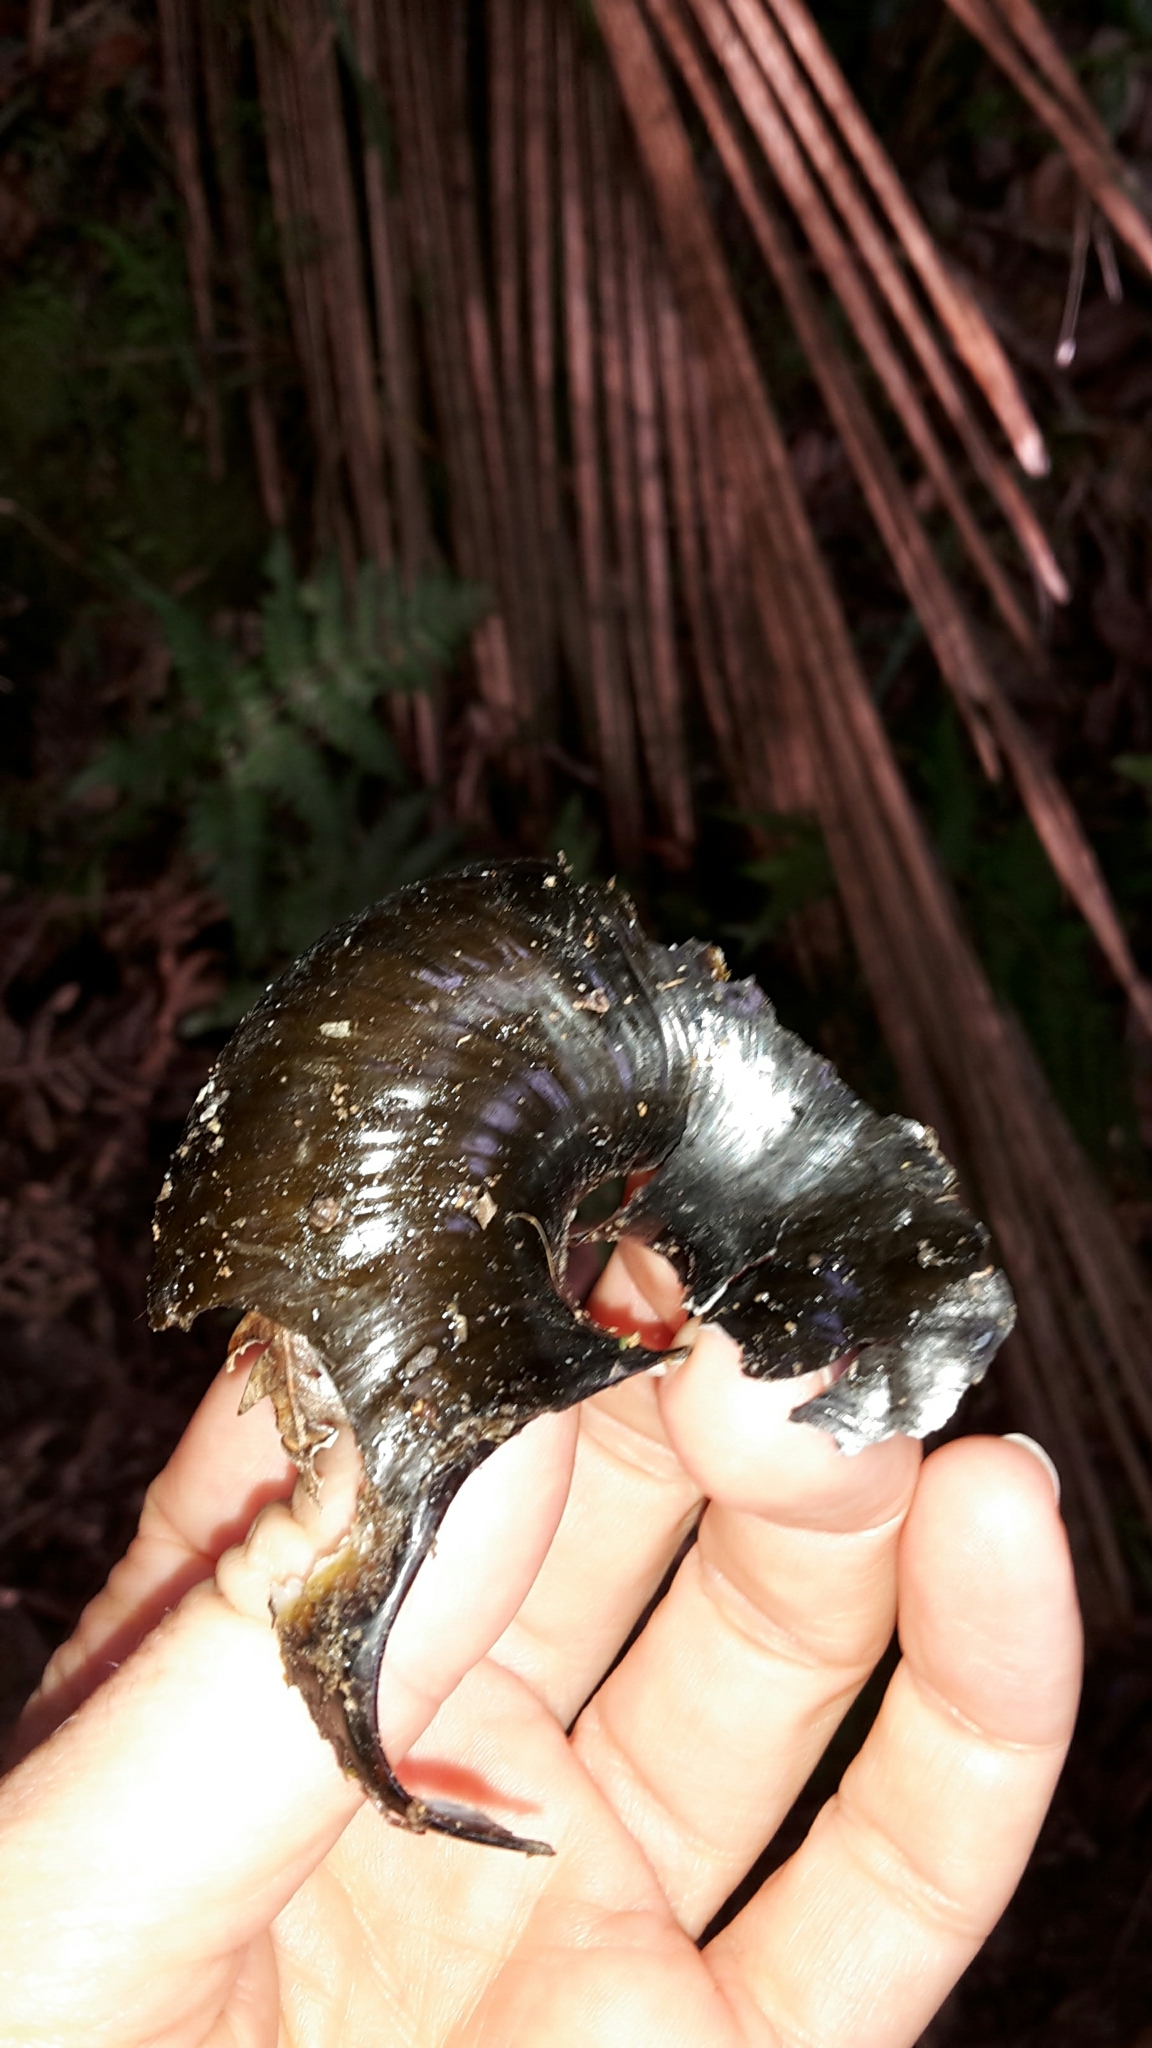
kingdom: Animalia
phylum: Mollusca
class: Gastropoda
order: Stylommatophora
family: Rhytididae
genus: Paryphanta
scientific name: Paryphanta busbyi
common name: Kauri snail
